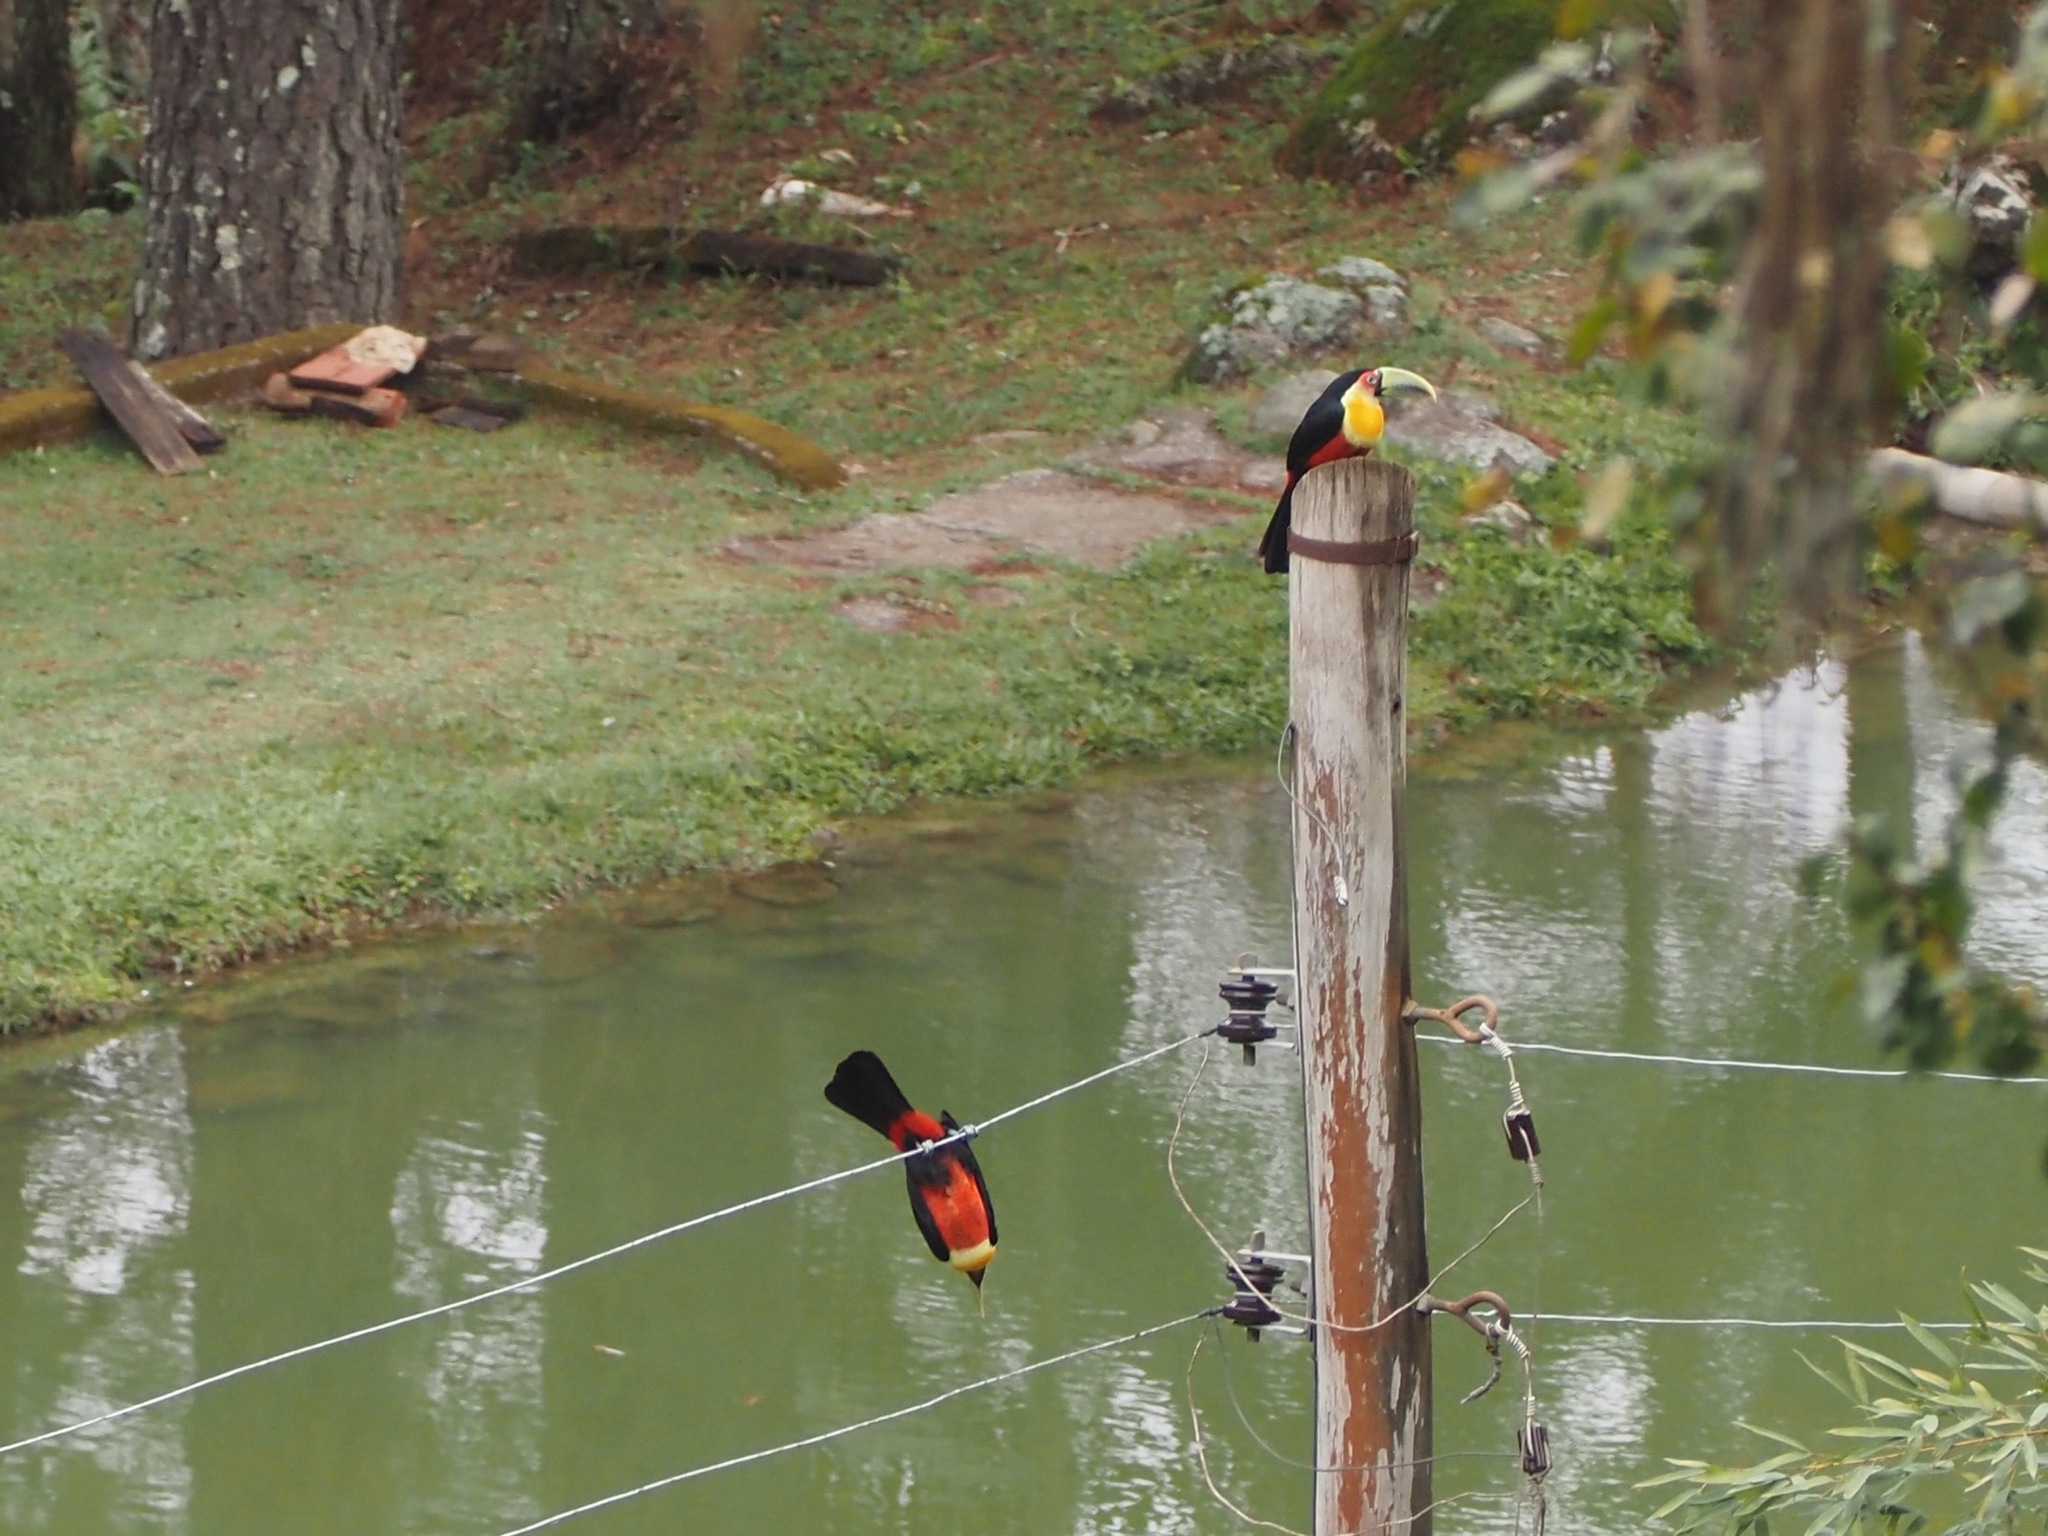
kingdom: Animalia
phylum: Chordata
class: Aves
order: Piciformes
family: Ramphastidae
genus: Ramphastos
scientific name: Ramphastos dicolorus
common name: Green-billed toucan
